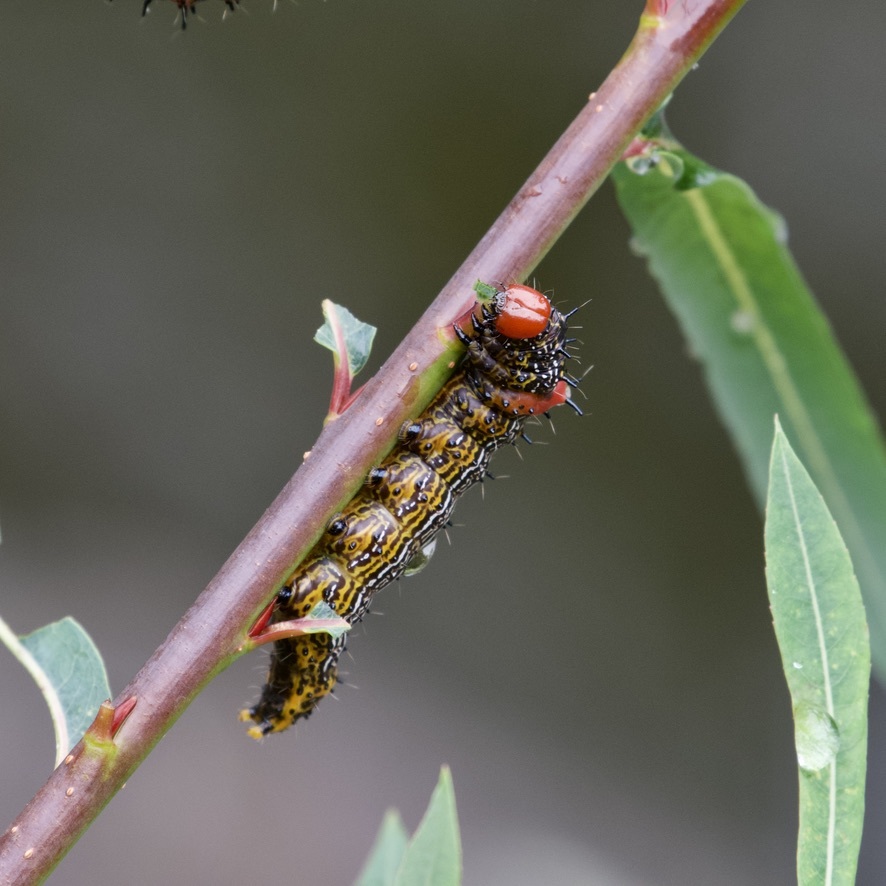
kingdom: Animalia
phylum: Arthropoda
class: Insecta
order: Lepidoptera
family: Notodontidae
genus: Schizura
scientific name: Schizura
